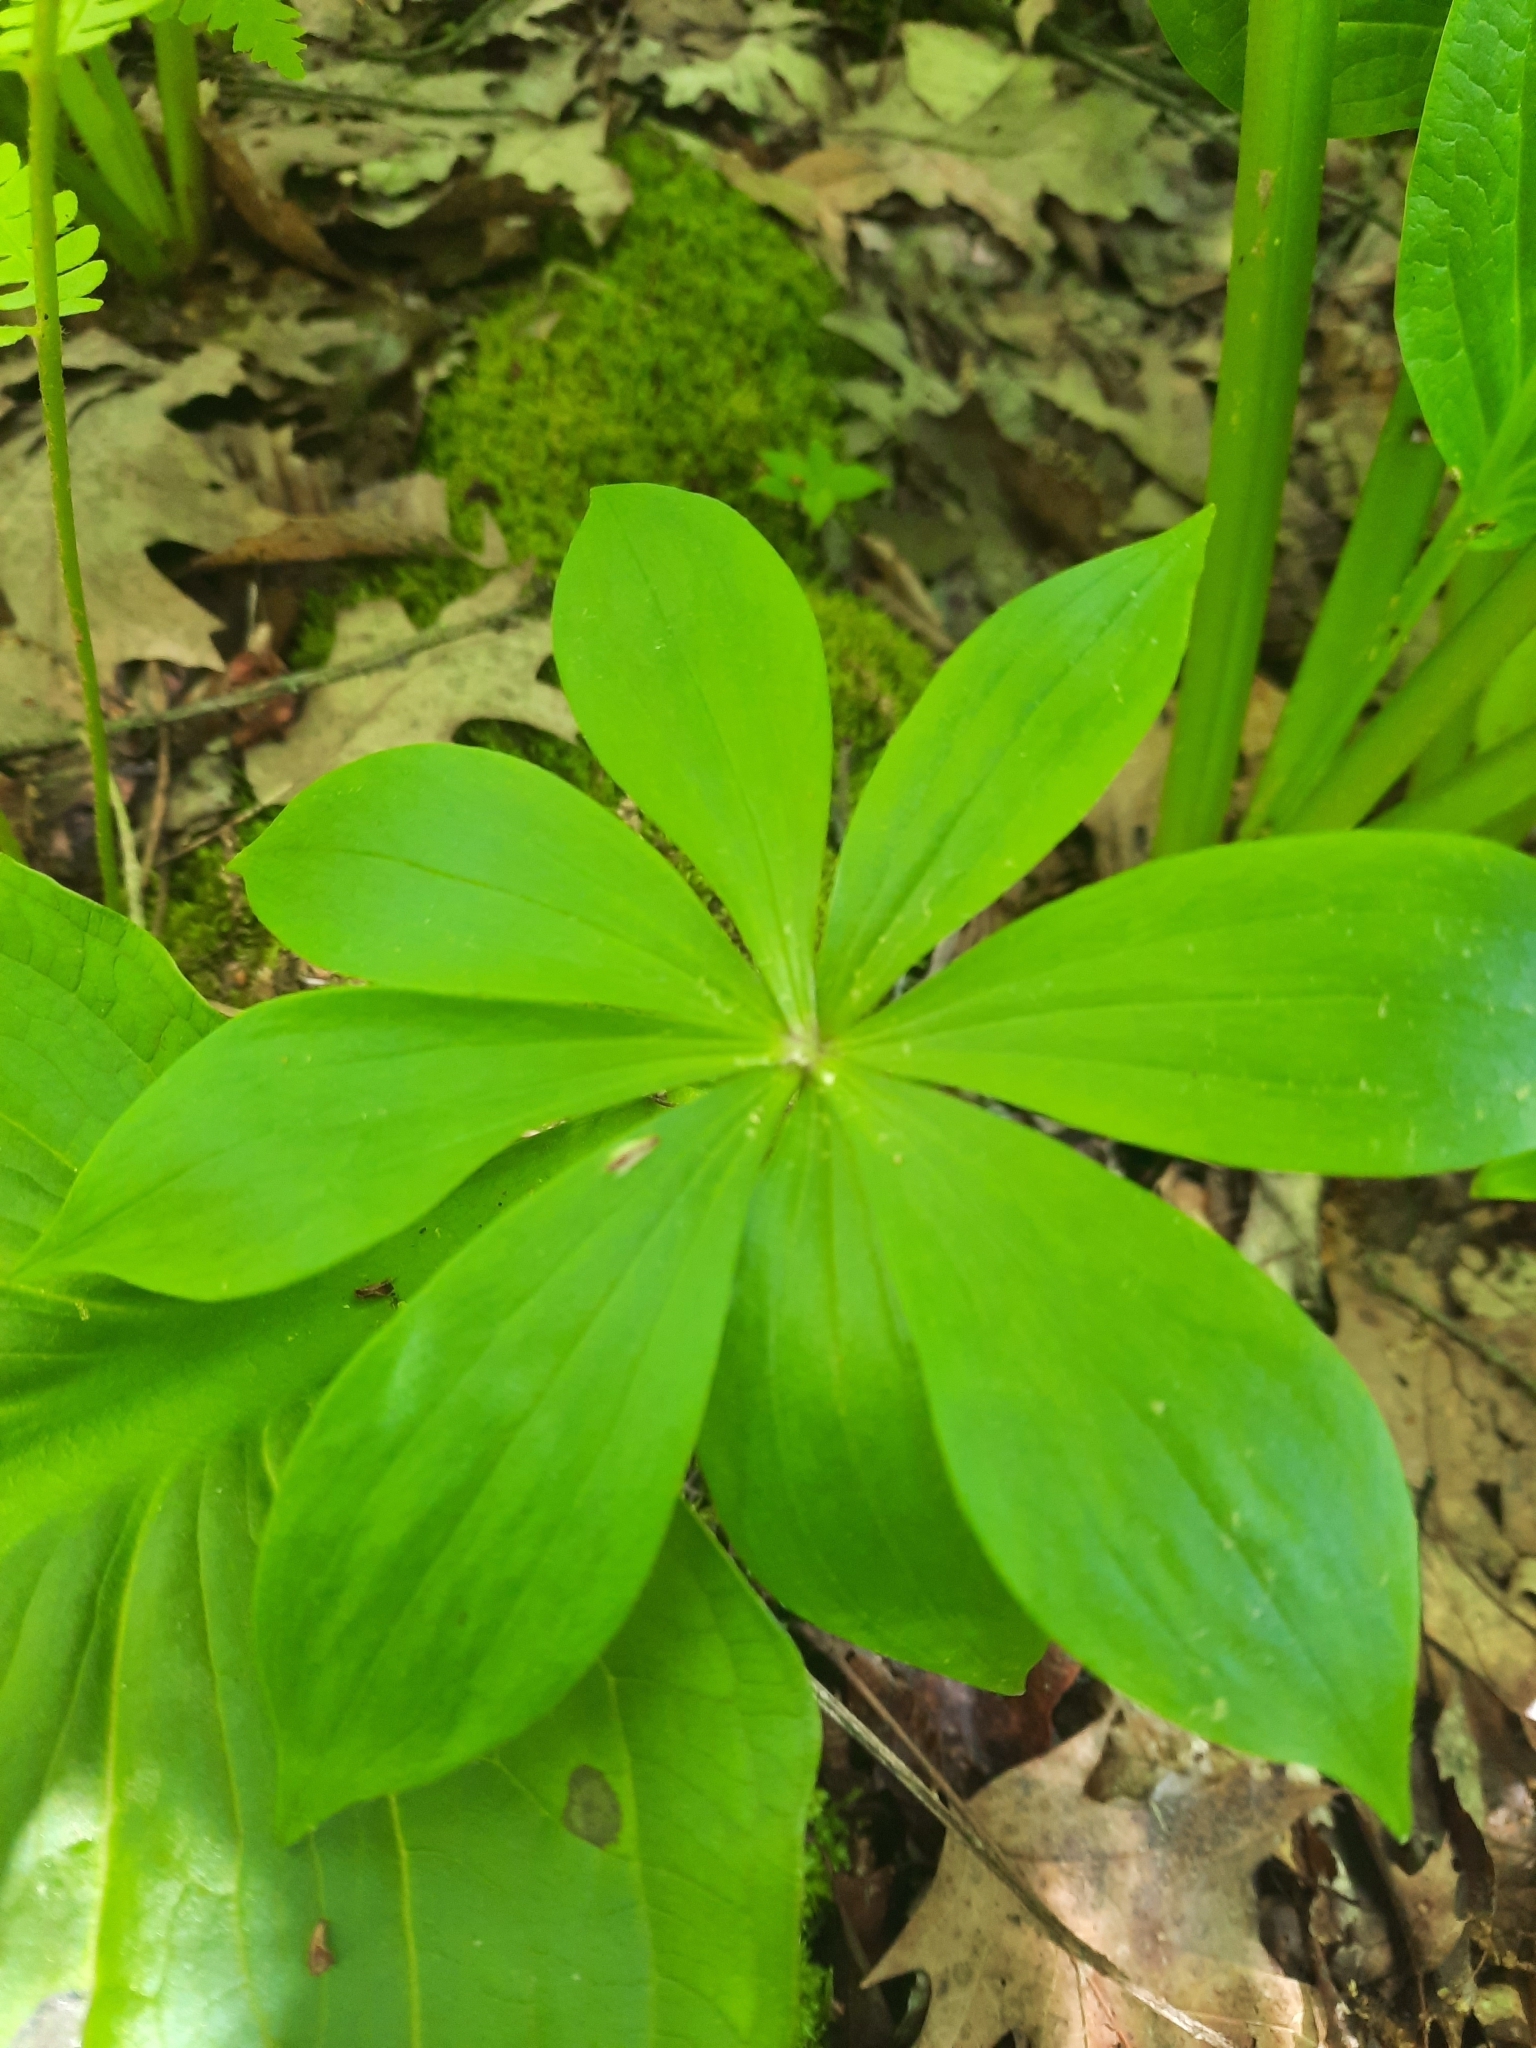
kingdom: Plantae
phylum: Tracheophyta
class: Liliopsida
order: Liliales
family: Liliaceae
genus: Medeola
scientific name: Medeola virginiana
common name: Indian cucumber-root
